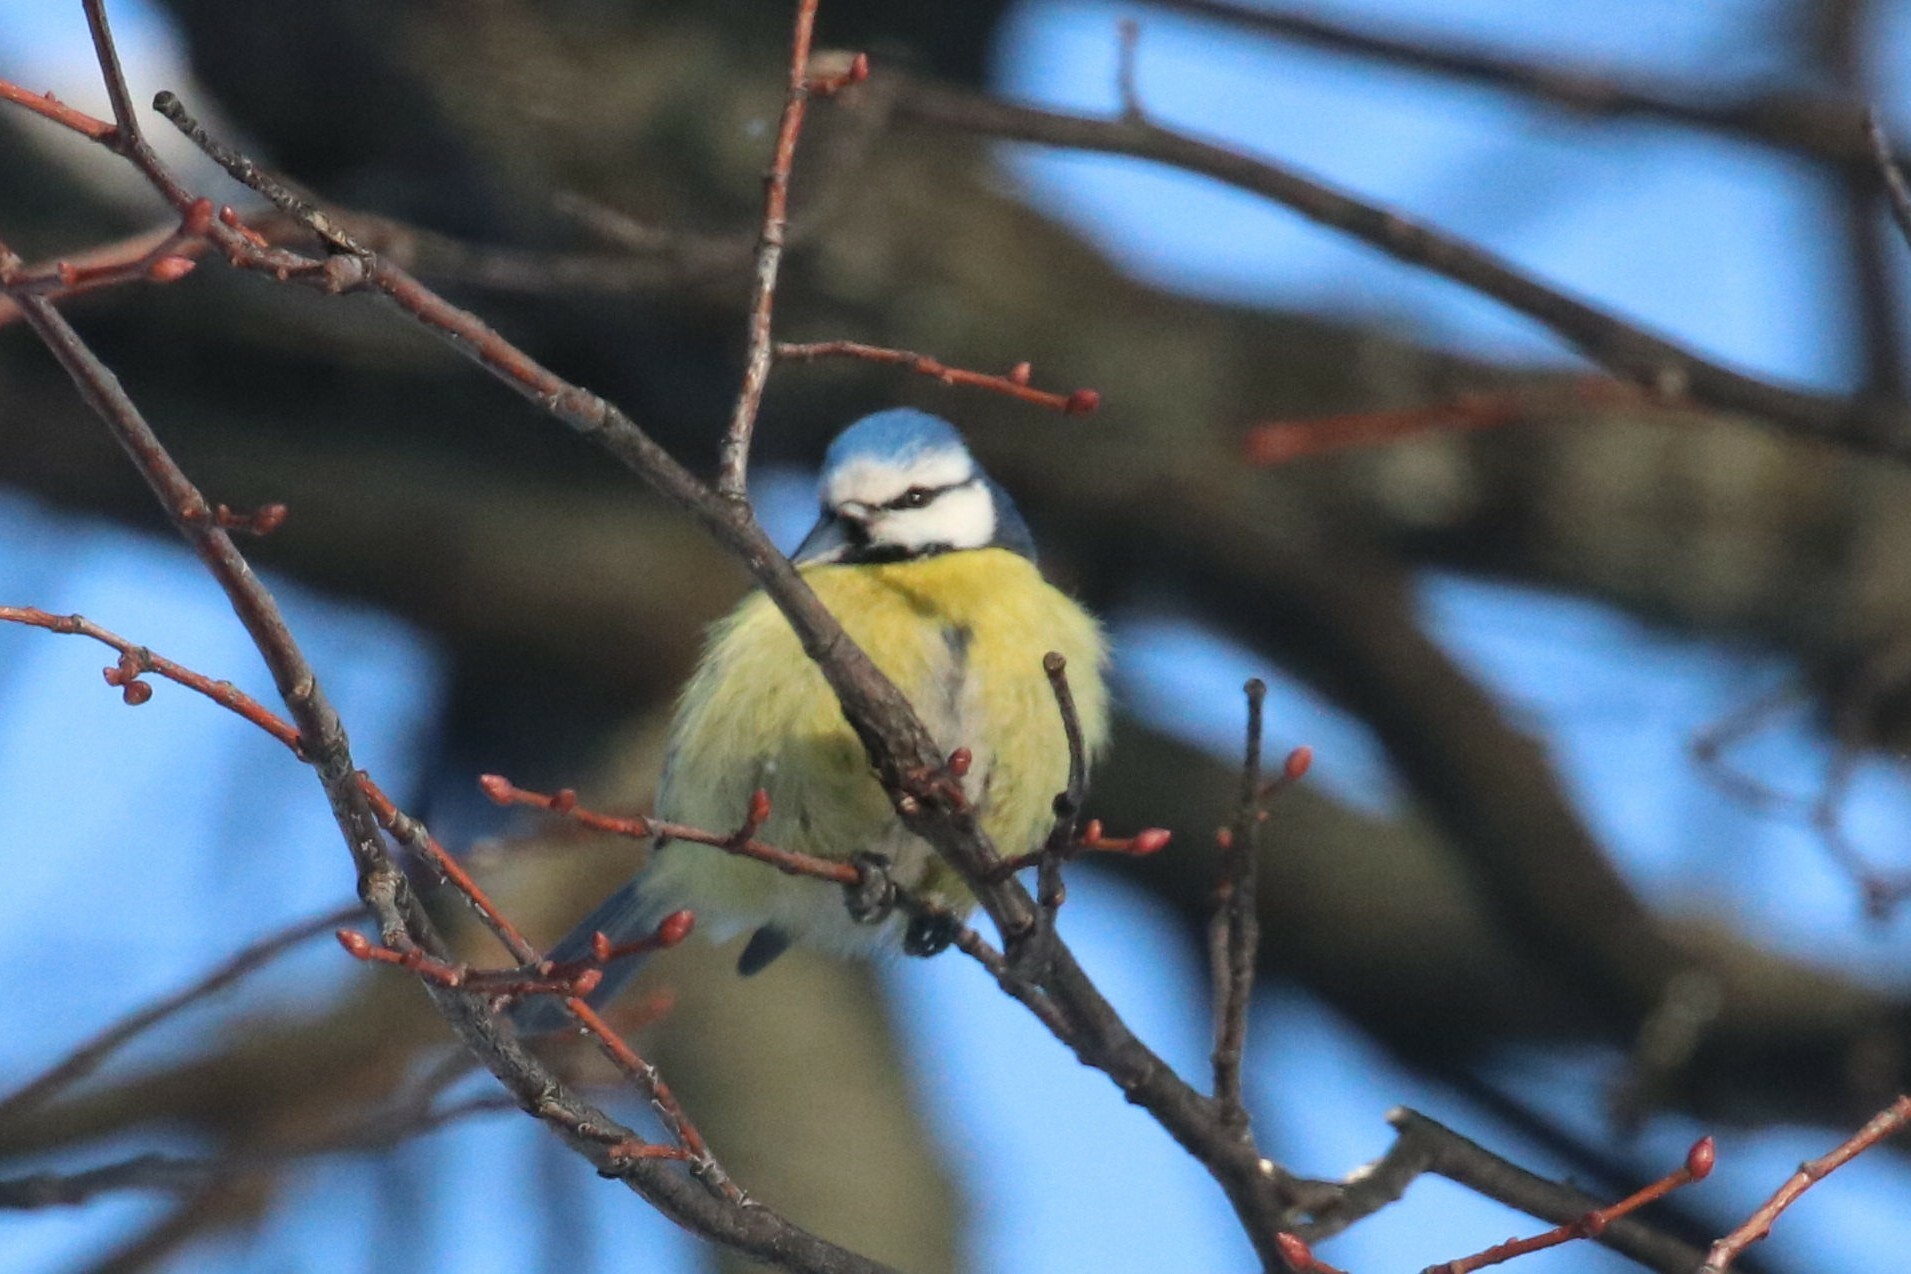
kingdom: Animalia
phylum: Chordata
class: Aves
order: Passeriformes
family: Paridae
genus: Cyanistes
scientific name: Cyanistes caeruleus
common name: Eurasian blue tit
